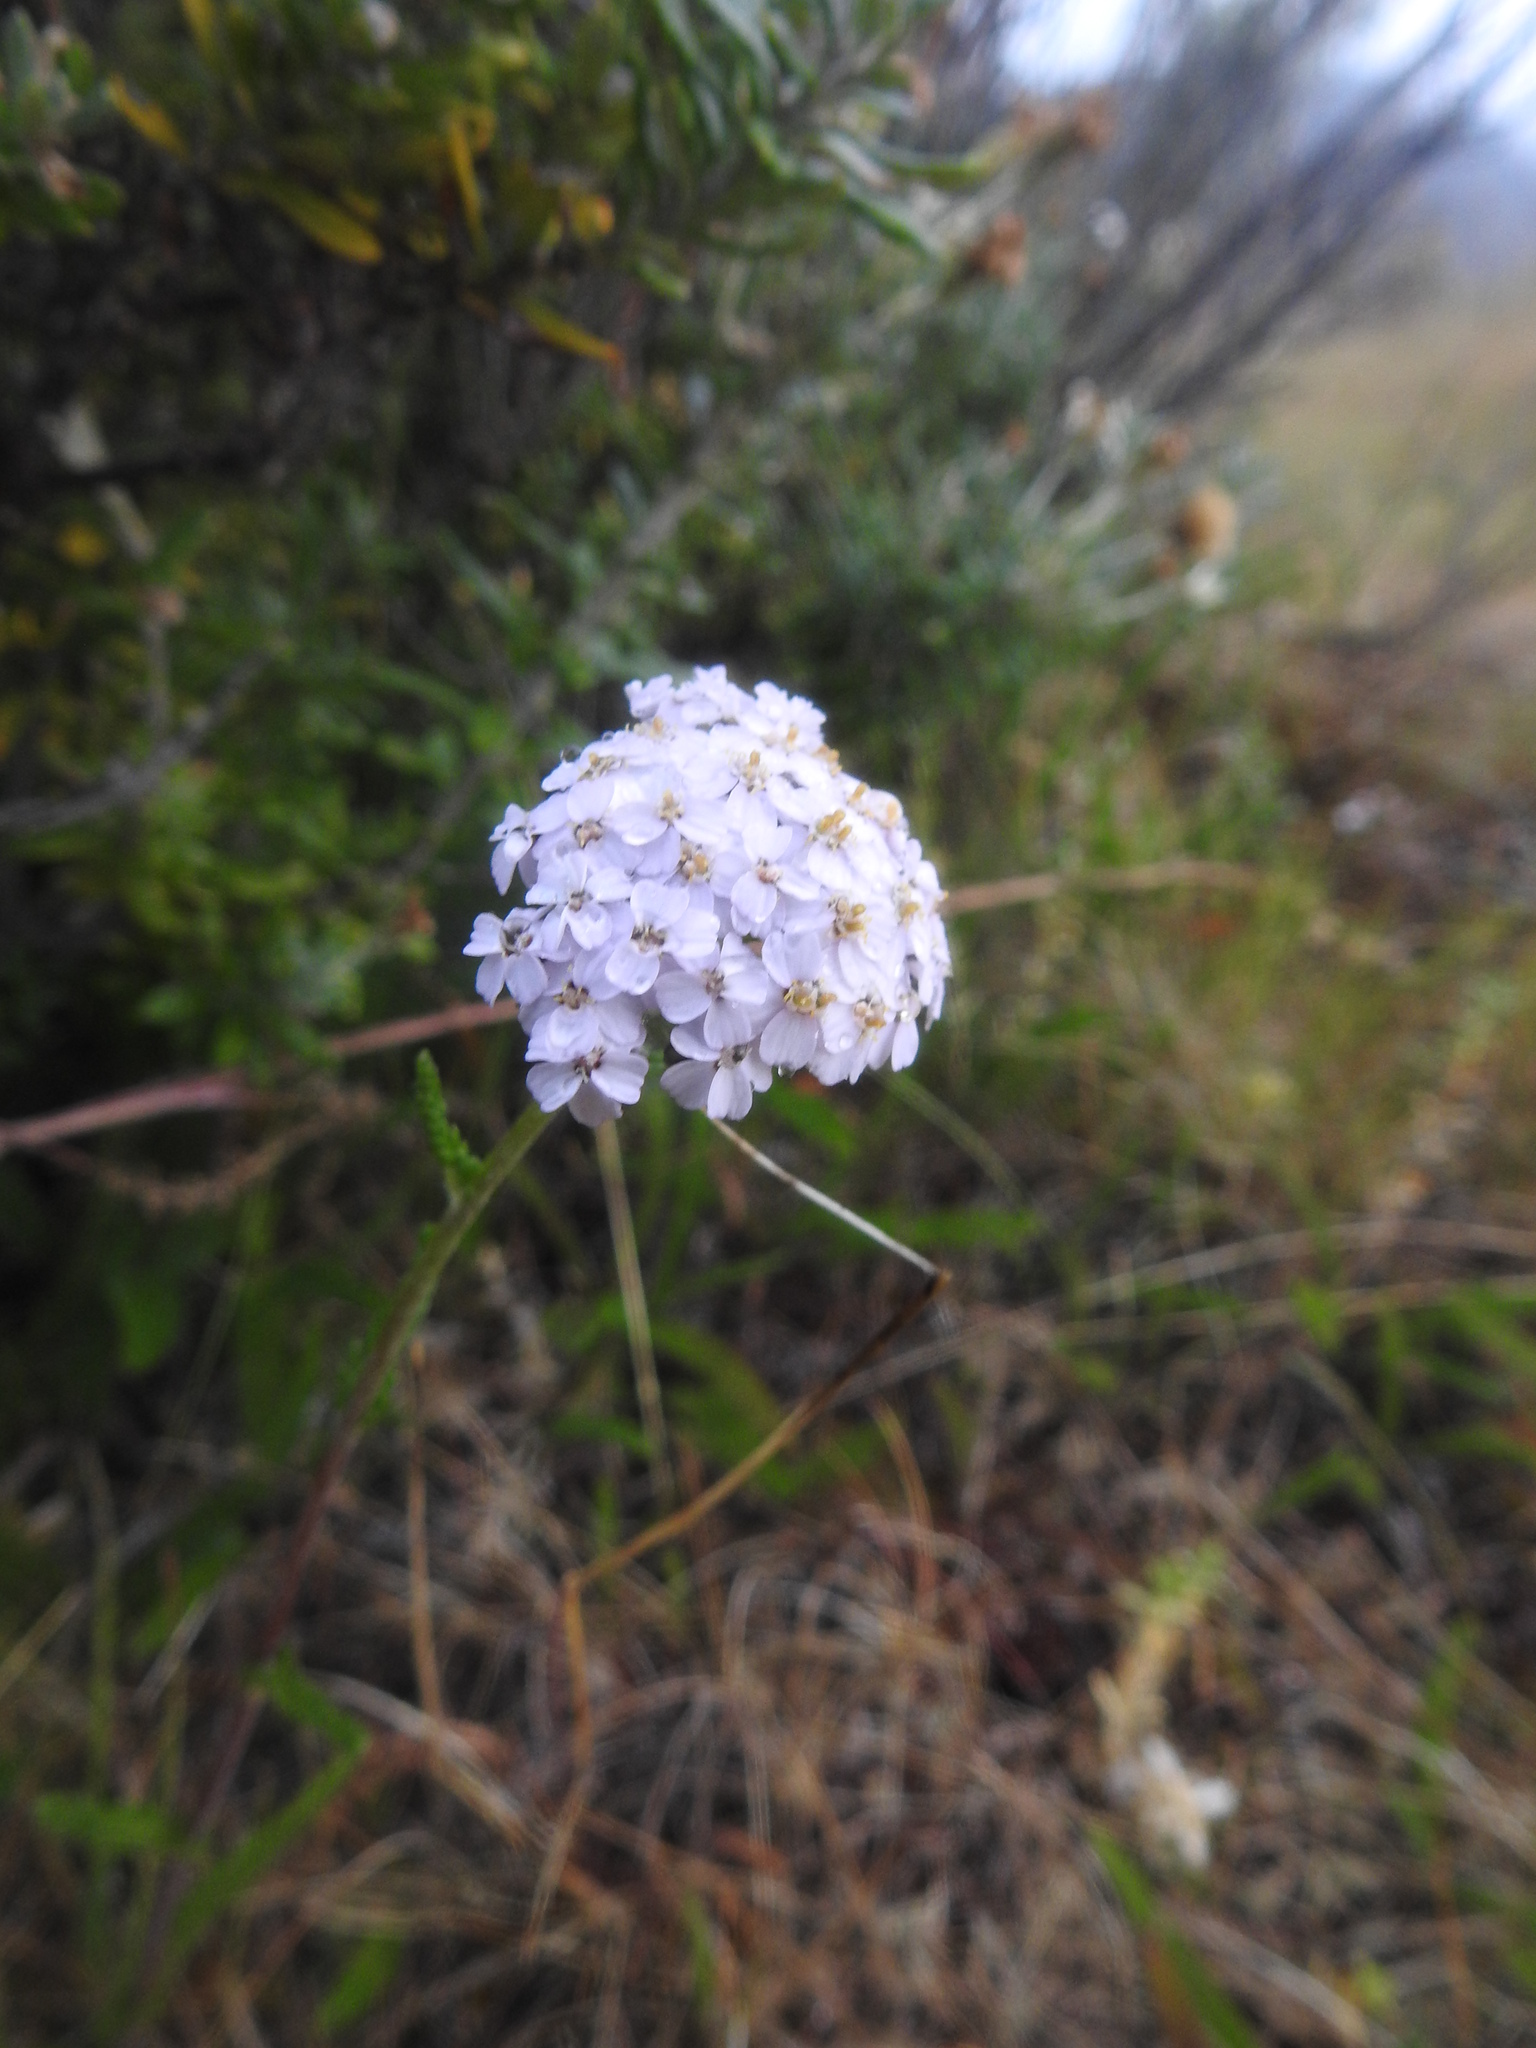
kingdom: Plantae
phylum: Tracheophyta
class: Magnoliopsida
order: Asterales
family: Asteraceae
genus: Achillea
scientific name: Achillea millefolium
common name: Yarrow
